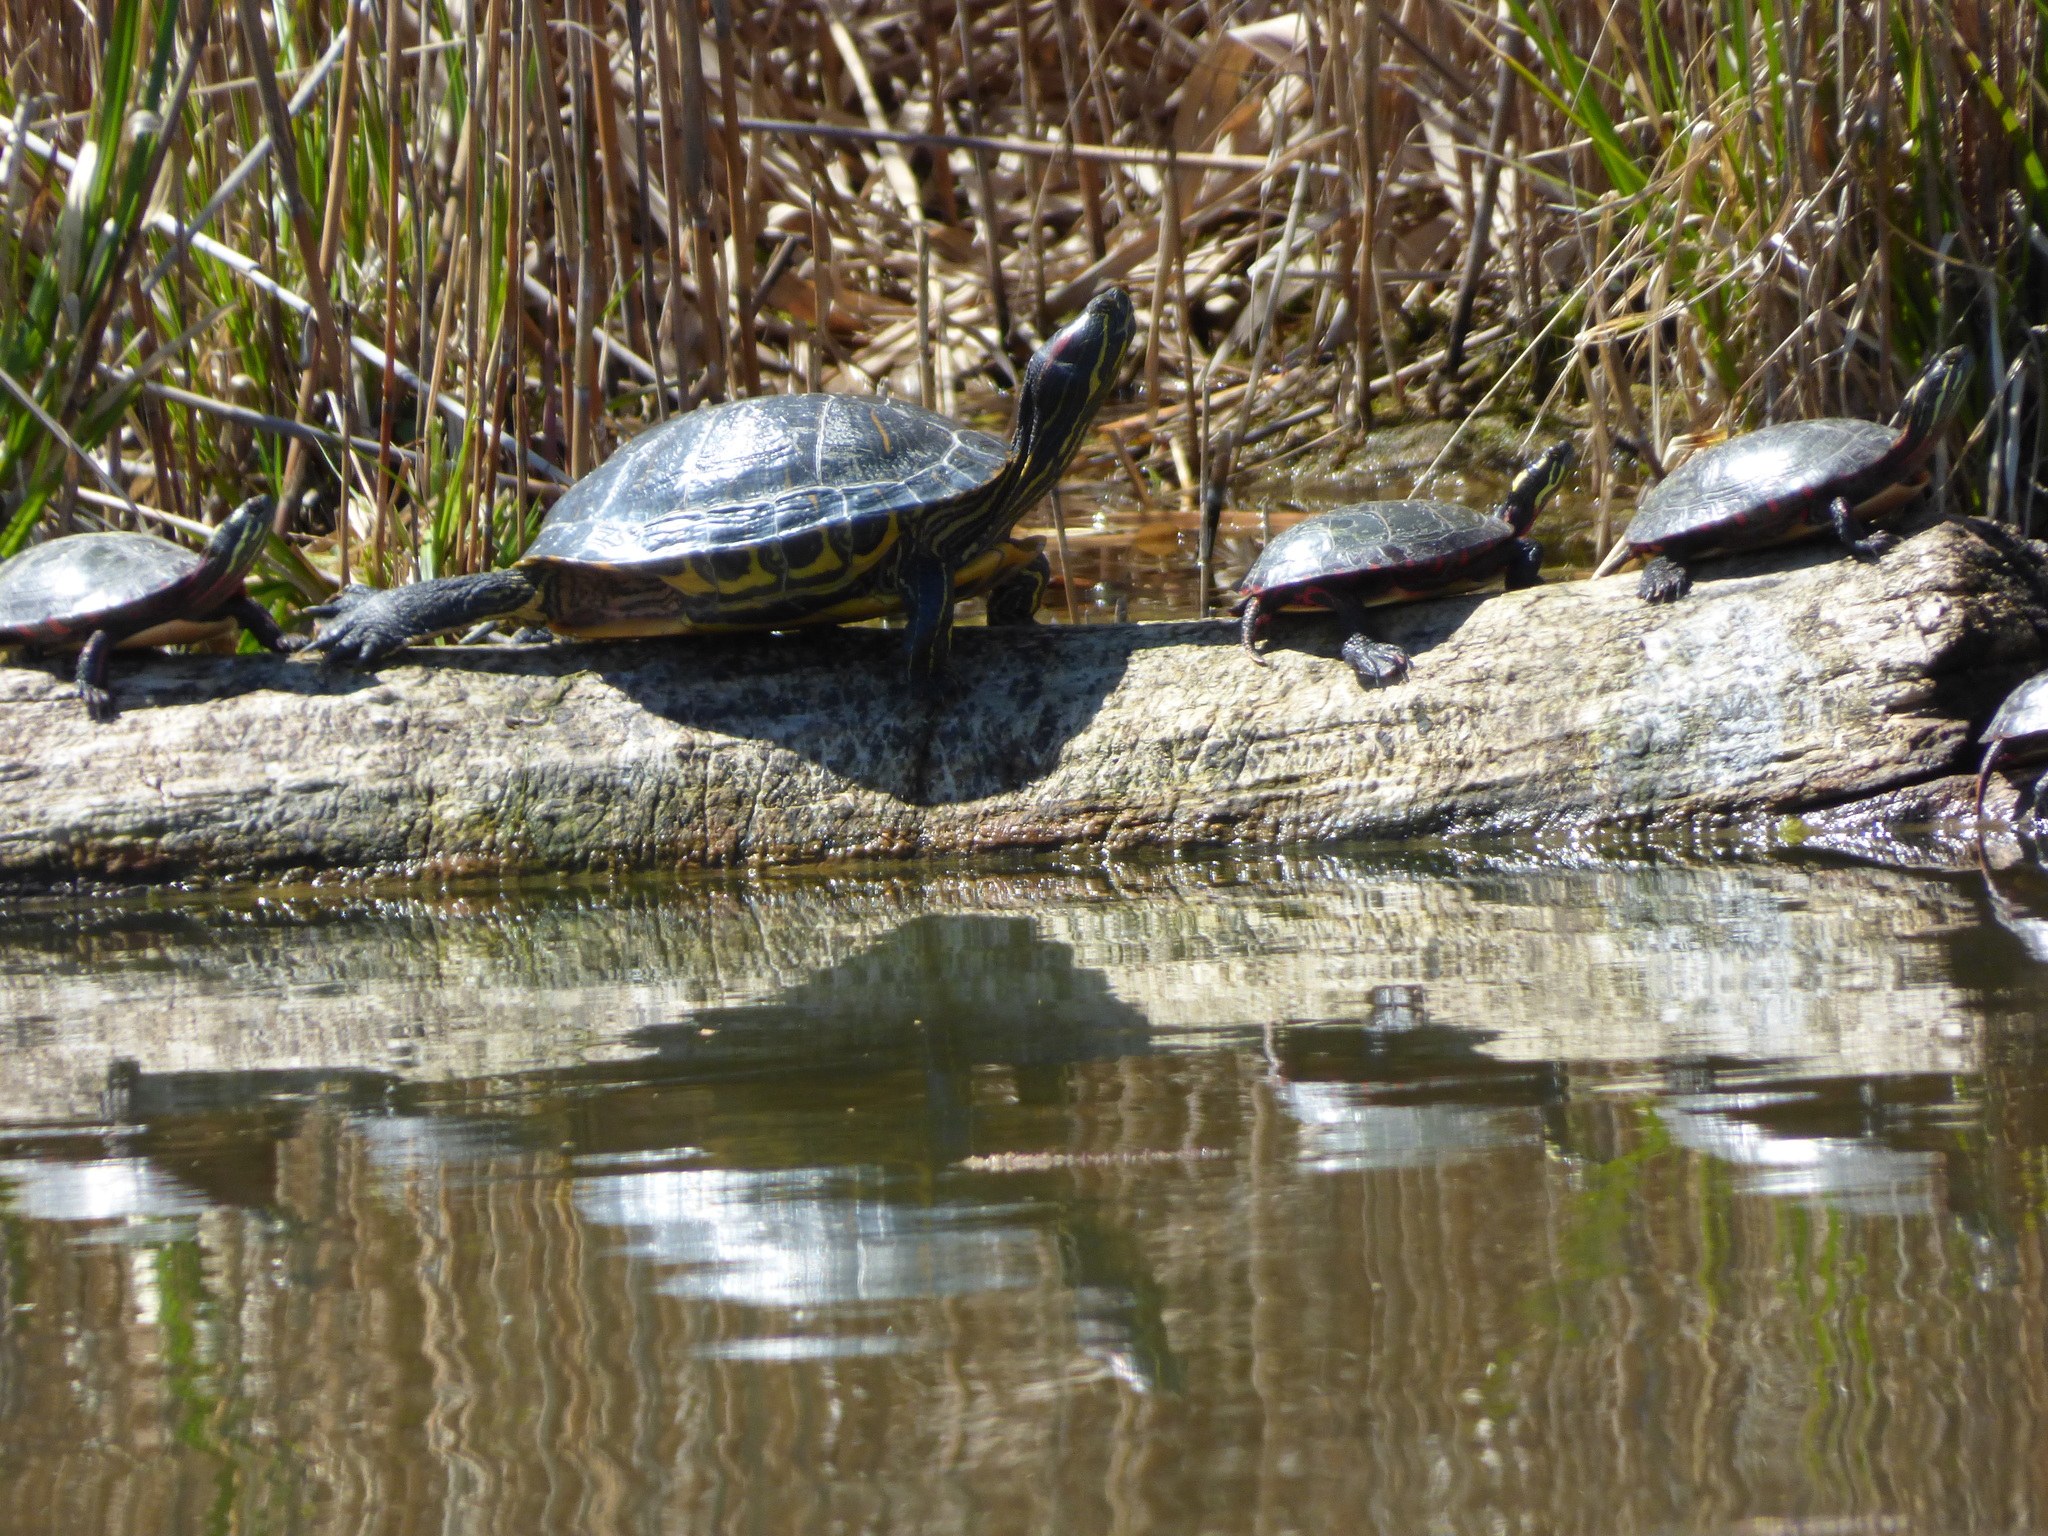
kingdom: Animalia
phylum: Chordata
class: Testudines
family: Emydidae
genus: Trachemys
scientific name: Trachemys scripta
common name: Slider
